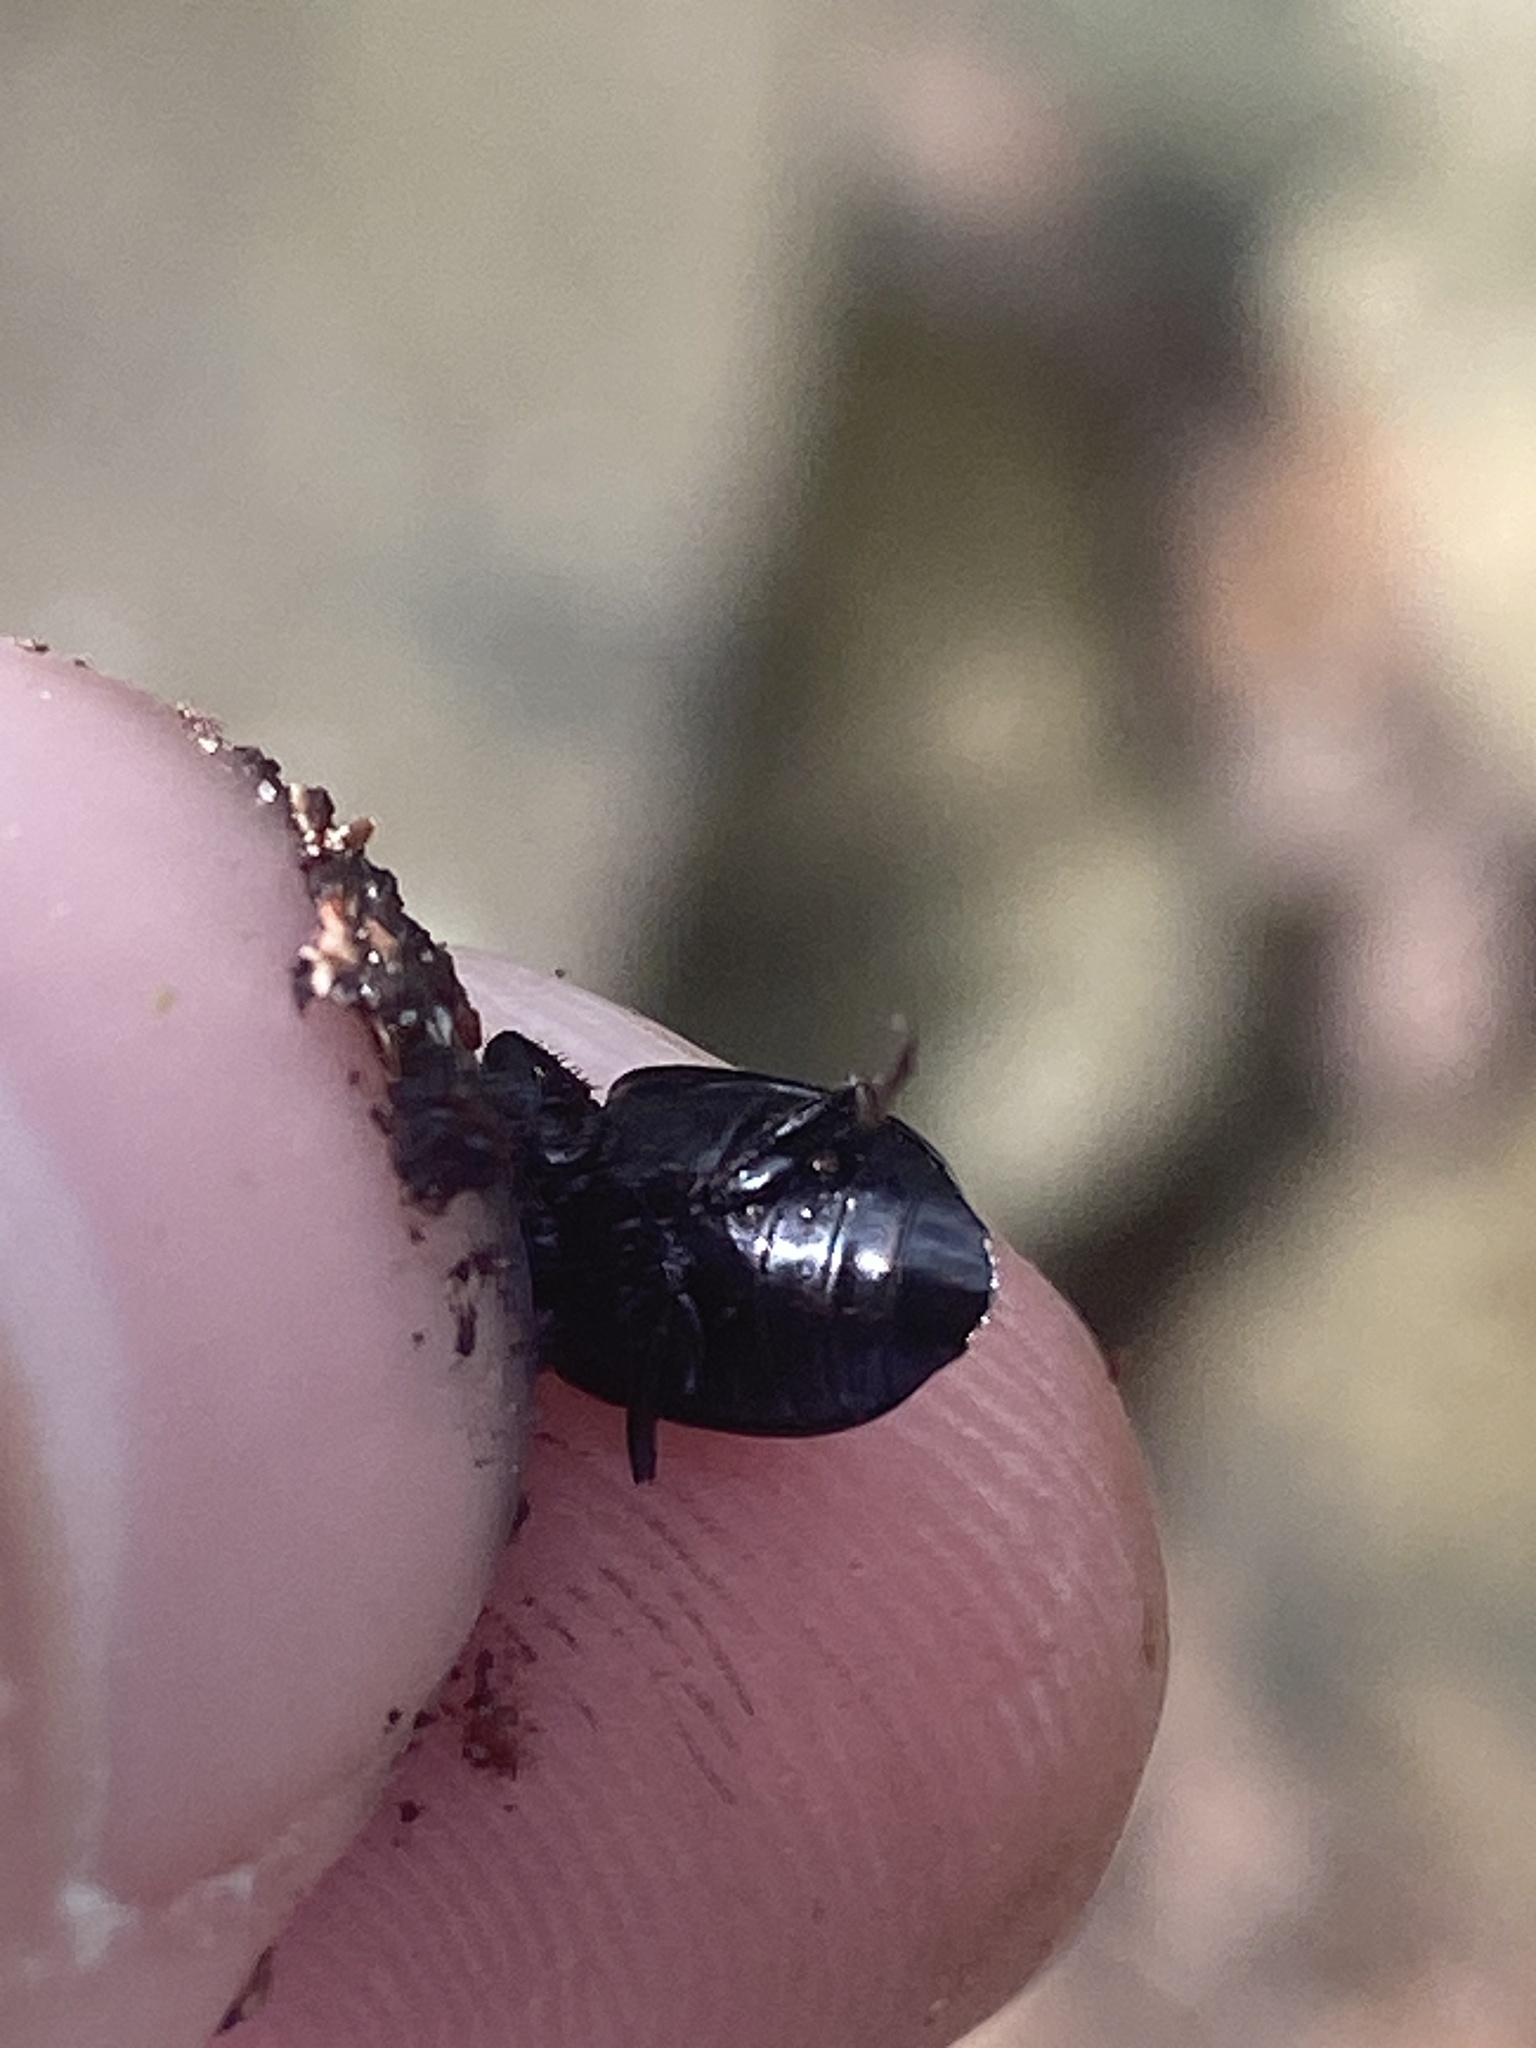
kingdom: Animalia
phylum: Arthropoda
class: Insecta
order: Coleoptera
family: Carabidae
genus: Anisodactylus
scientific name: Anisodactylus harrisii
